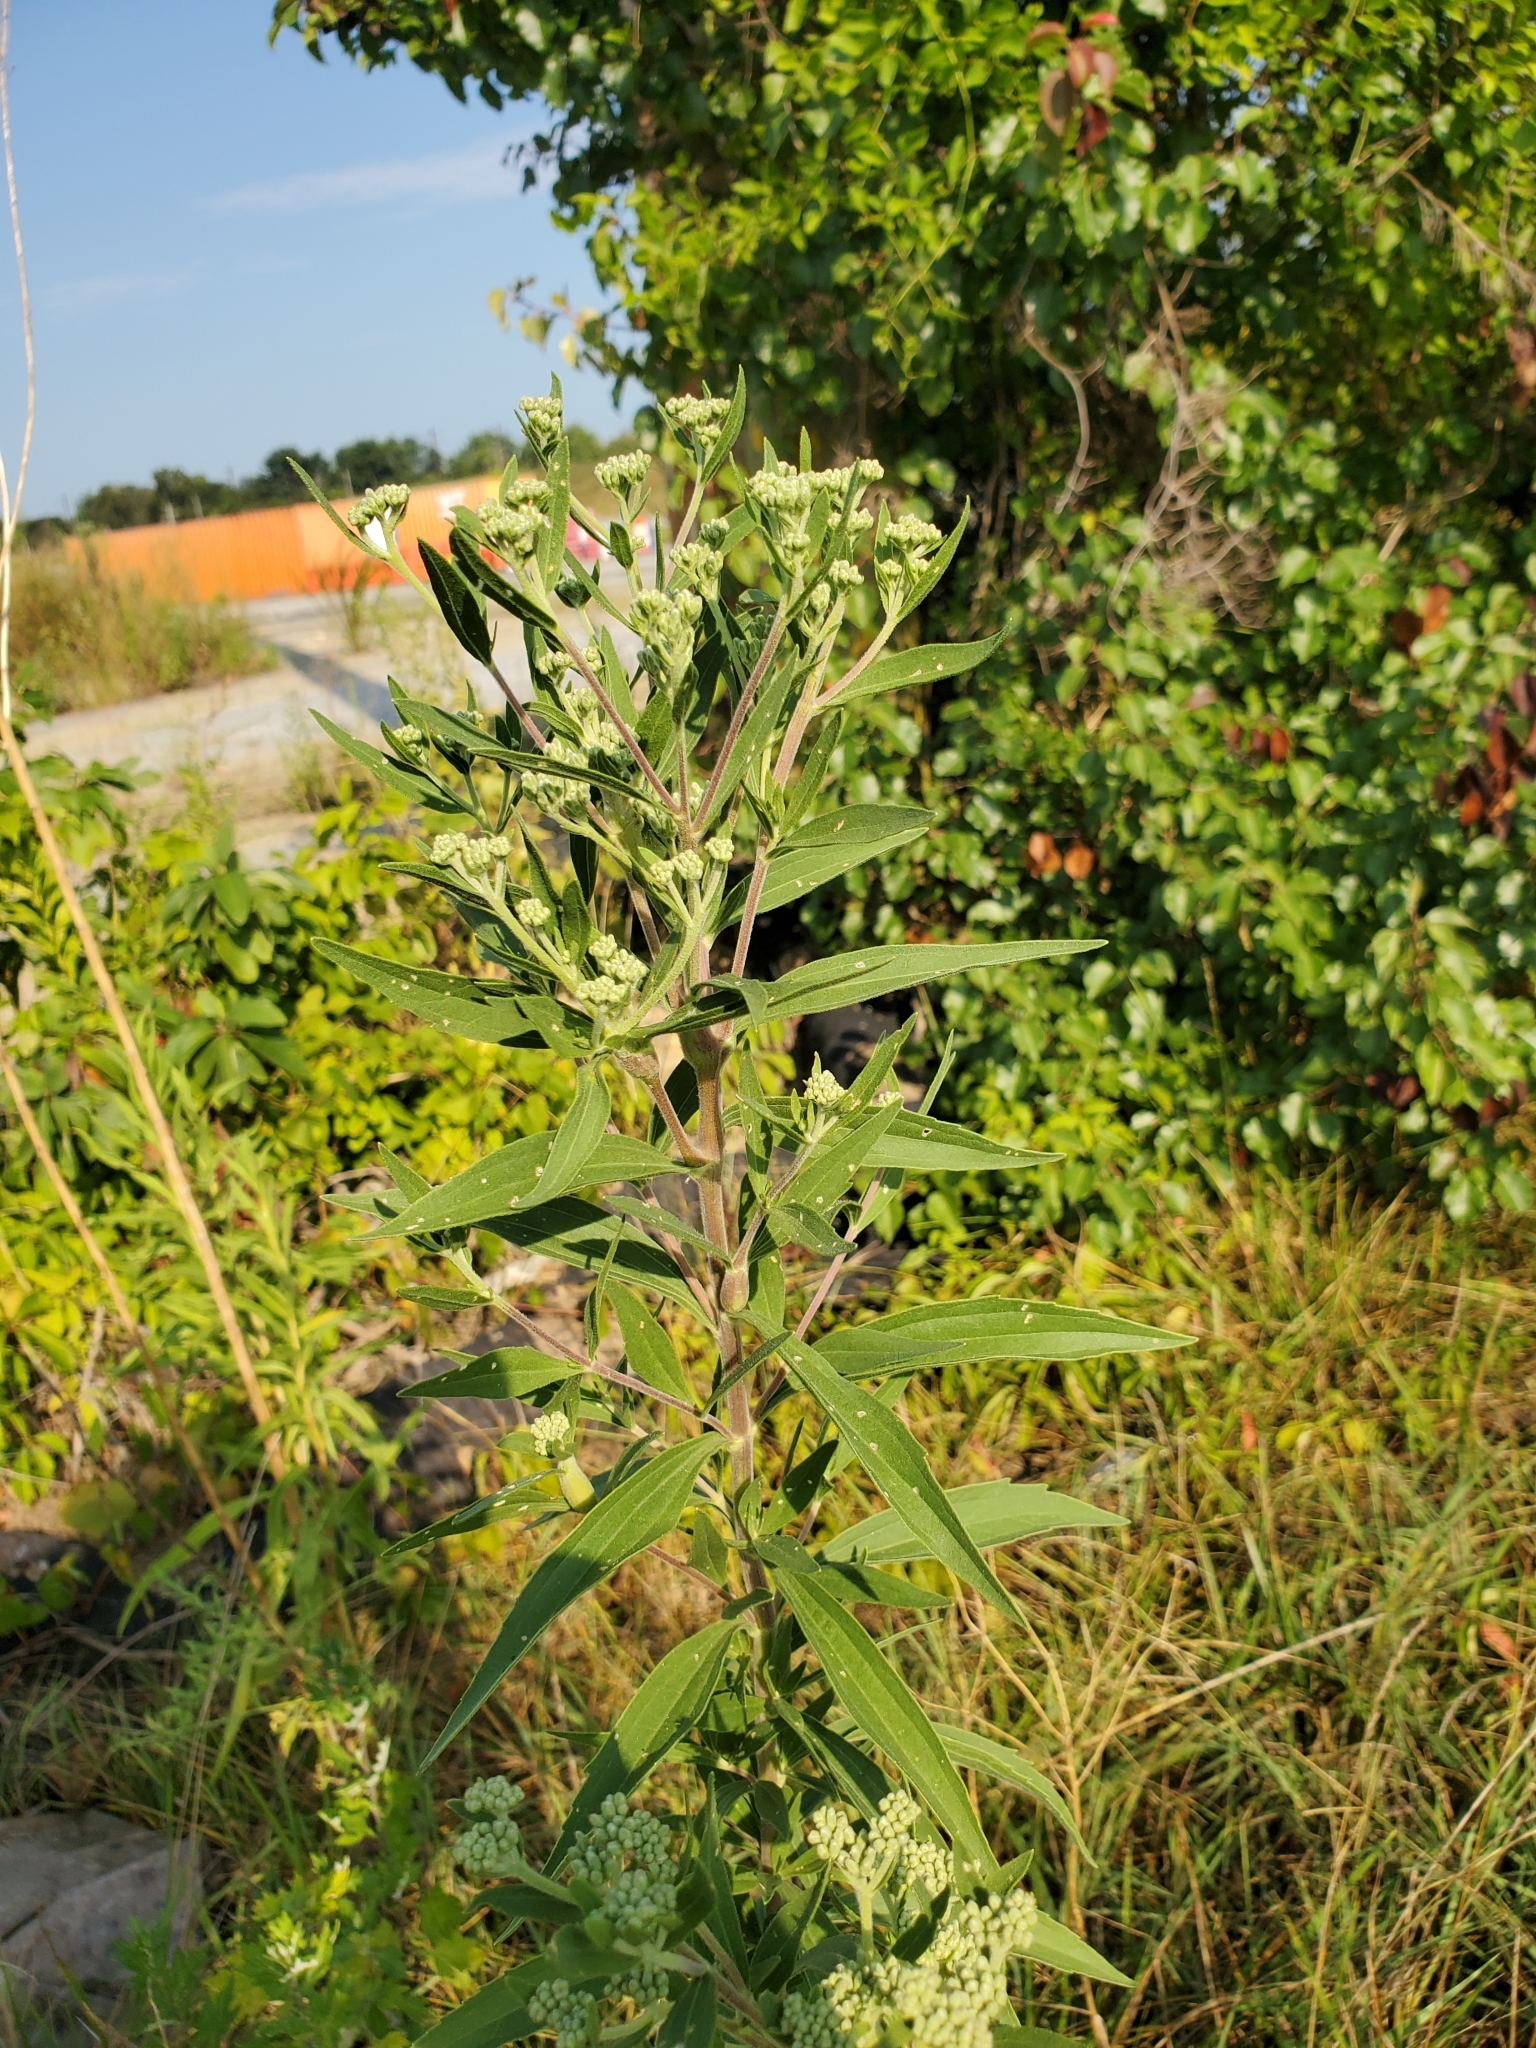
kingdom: Plantae
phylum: Tracheophyta
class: Magnoliopsida
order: Asterales
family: Asteraceae
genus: Eupatorium
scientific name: Eupatorium altissimum
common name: Tall thoroughwort
